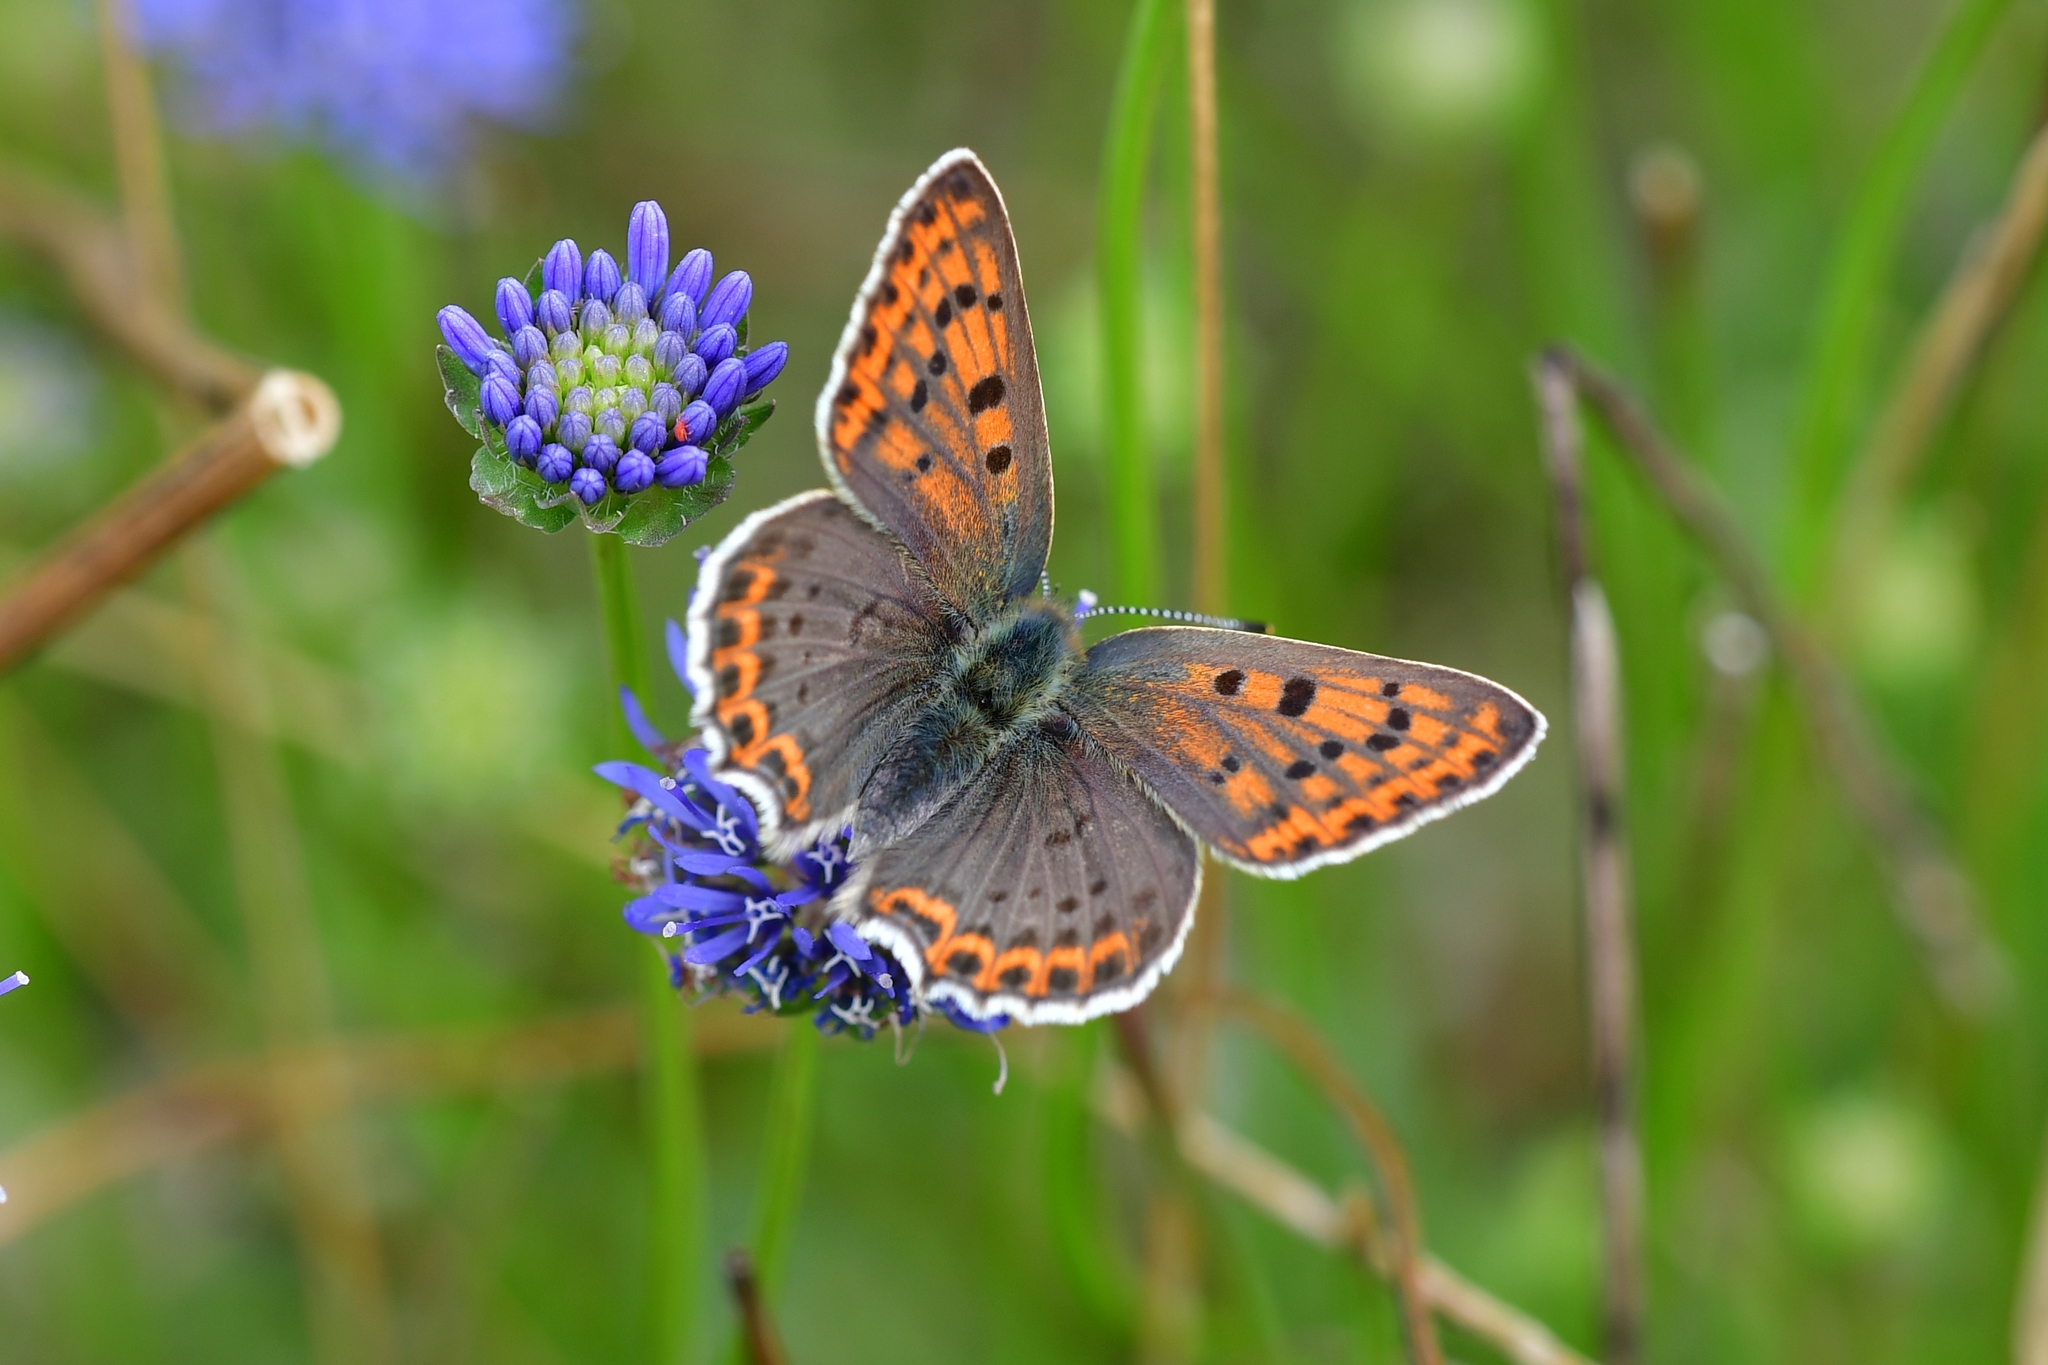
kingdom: Animalia
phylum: Arthropoda
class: Insecta
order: Lepidoptera
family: Lycaenidae
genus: Loweia
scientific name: Loweia tityrus
